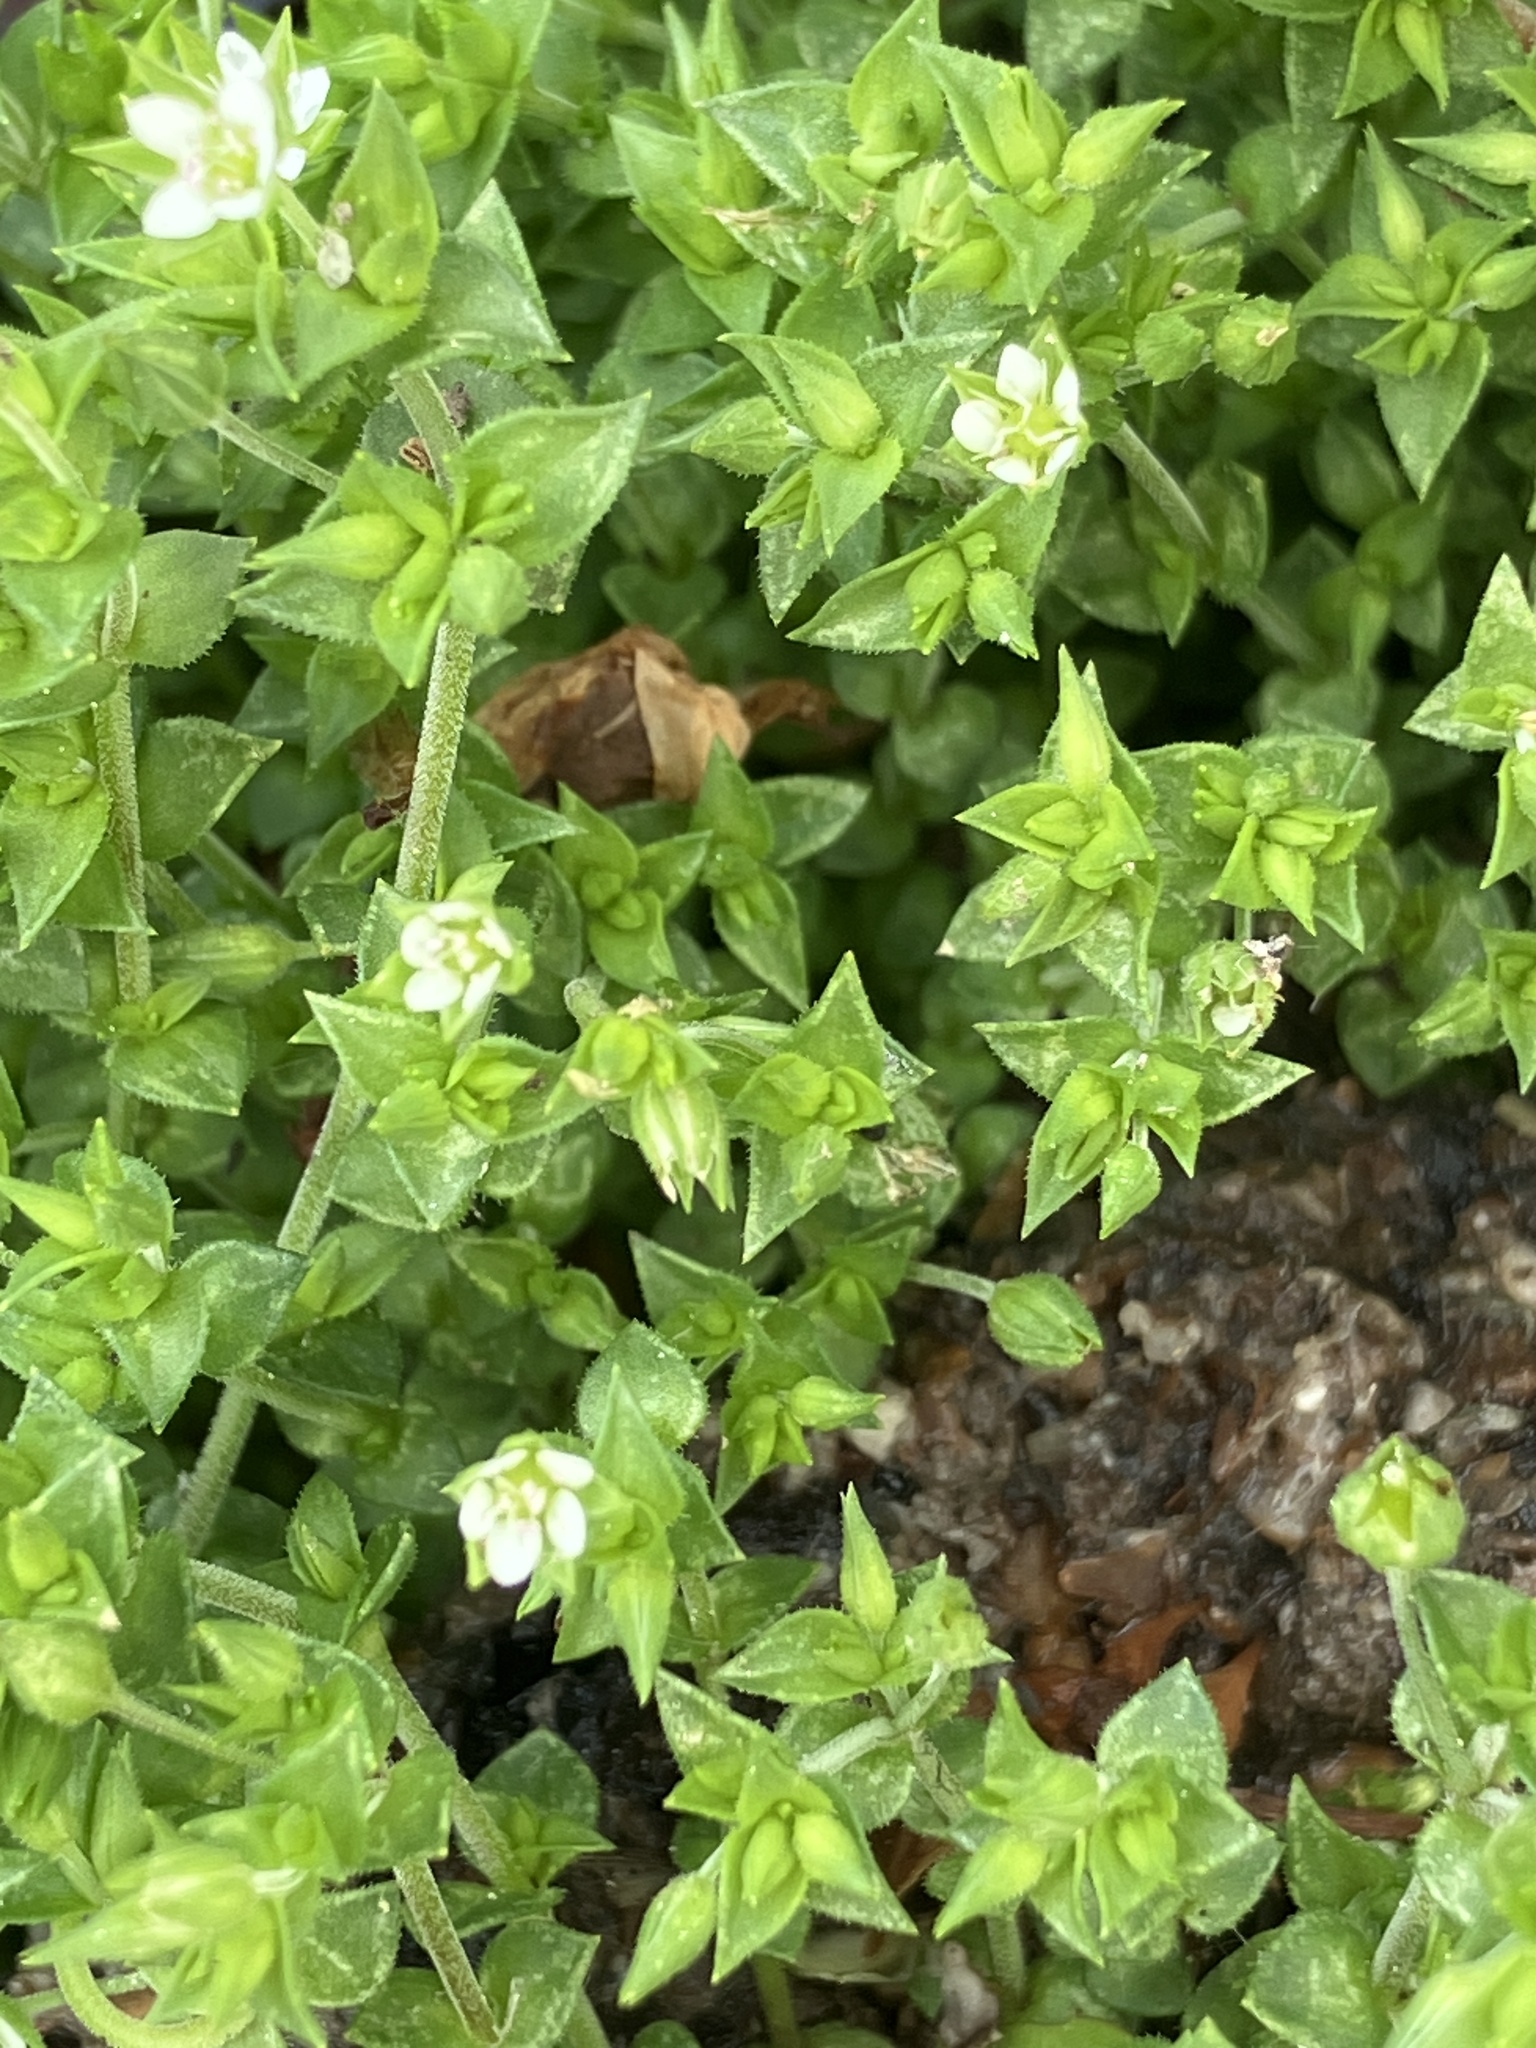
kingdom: Plantae
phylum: Tracheophyta
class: Magnoliopsida
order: Caryophyllales
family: Caryophyllaceae
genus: Arenaria
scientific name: Arenaria serpyllifolia
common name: Thyme-leaved sandwort
